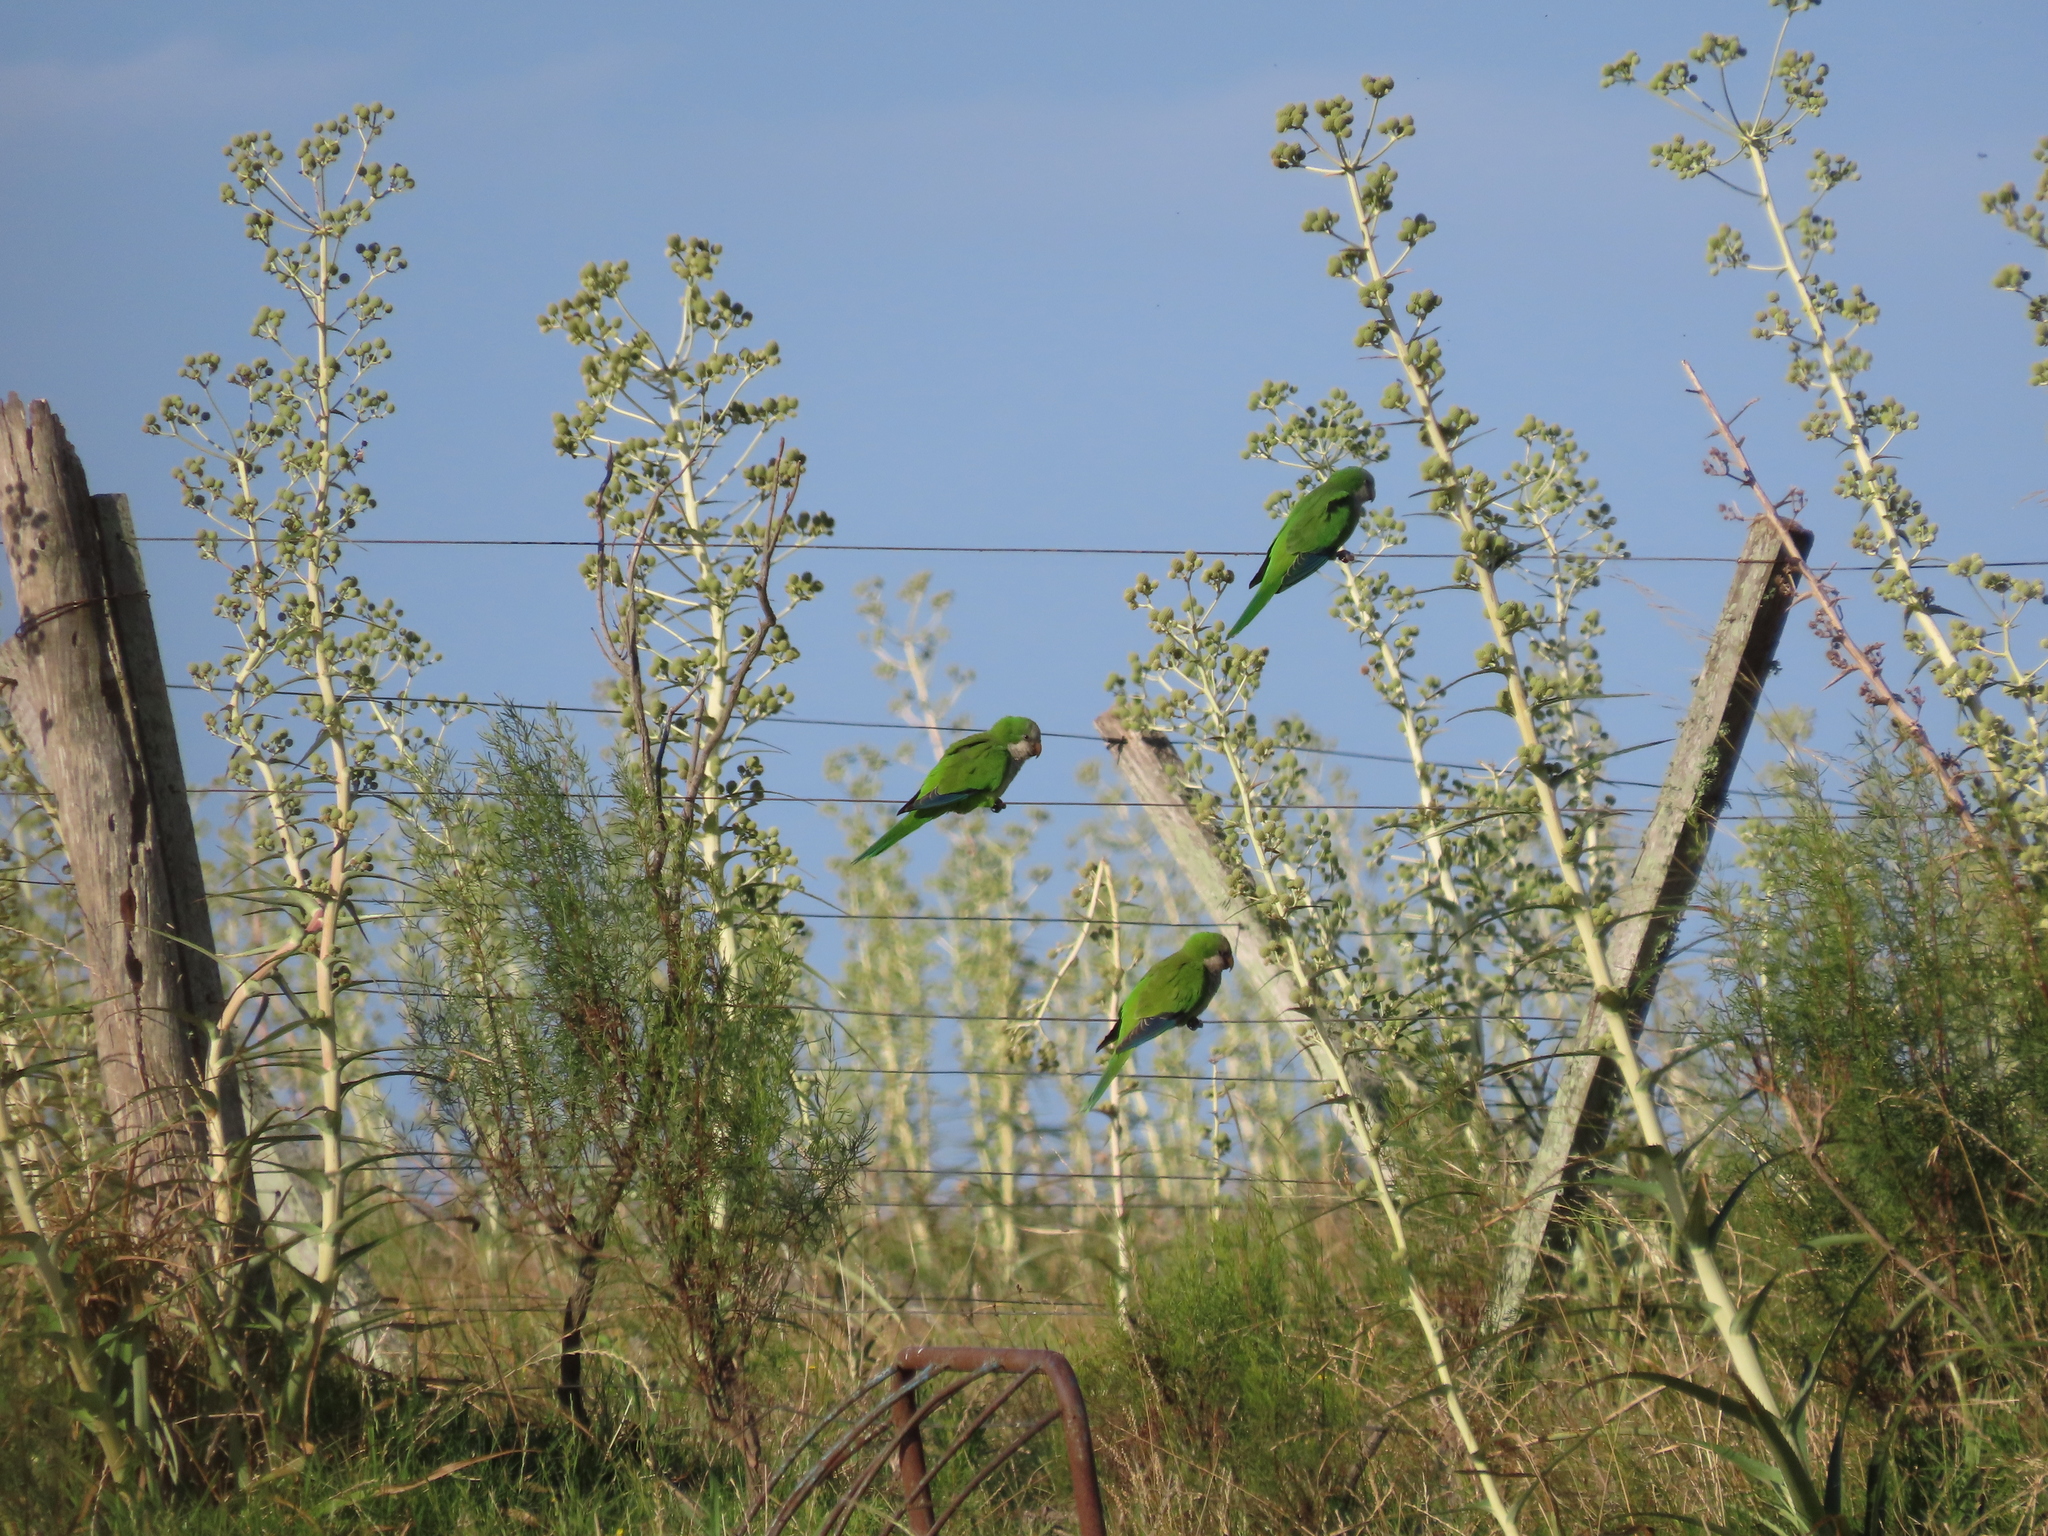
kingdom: Animalia
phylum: Chordata
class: Aves
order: Psittaciformes
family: Psittacidae
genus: Myiopsitta
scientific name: Myiopsitta monachus
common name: Monk parakeet
